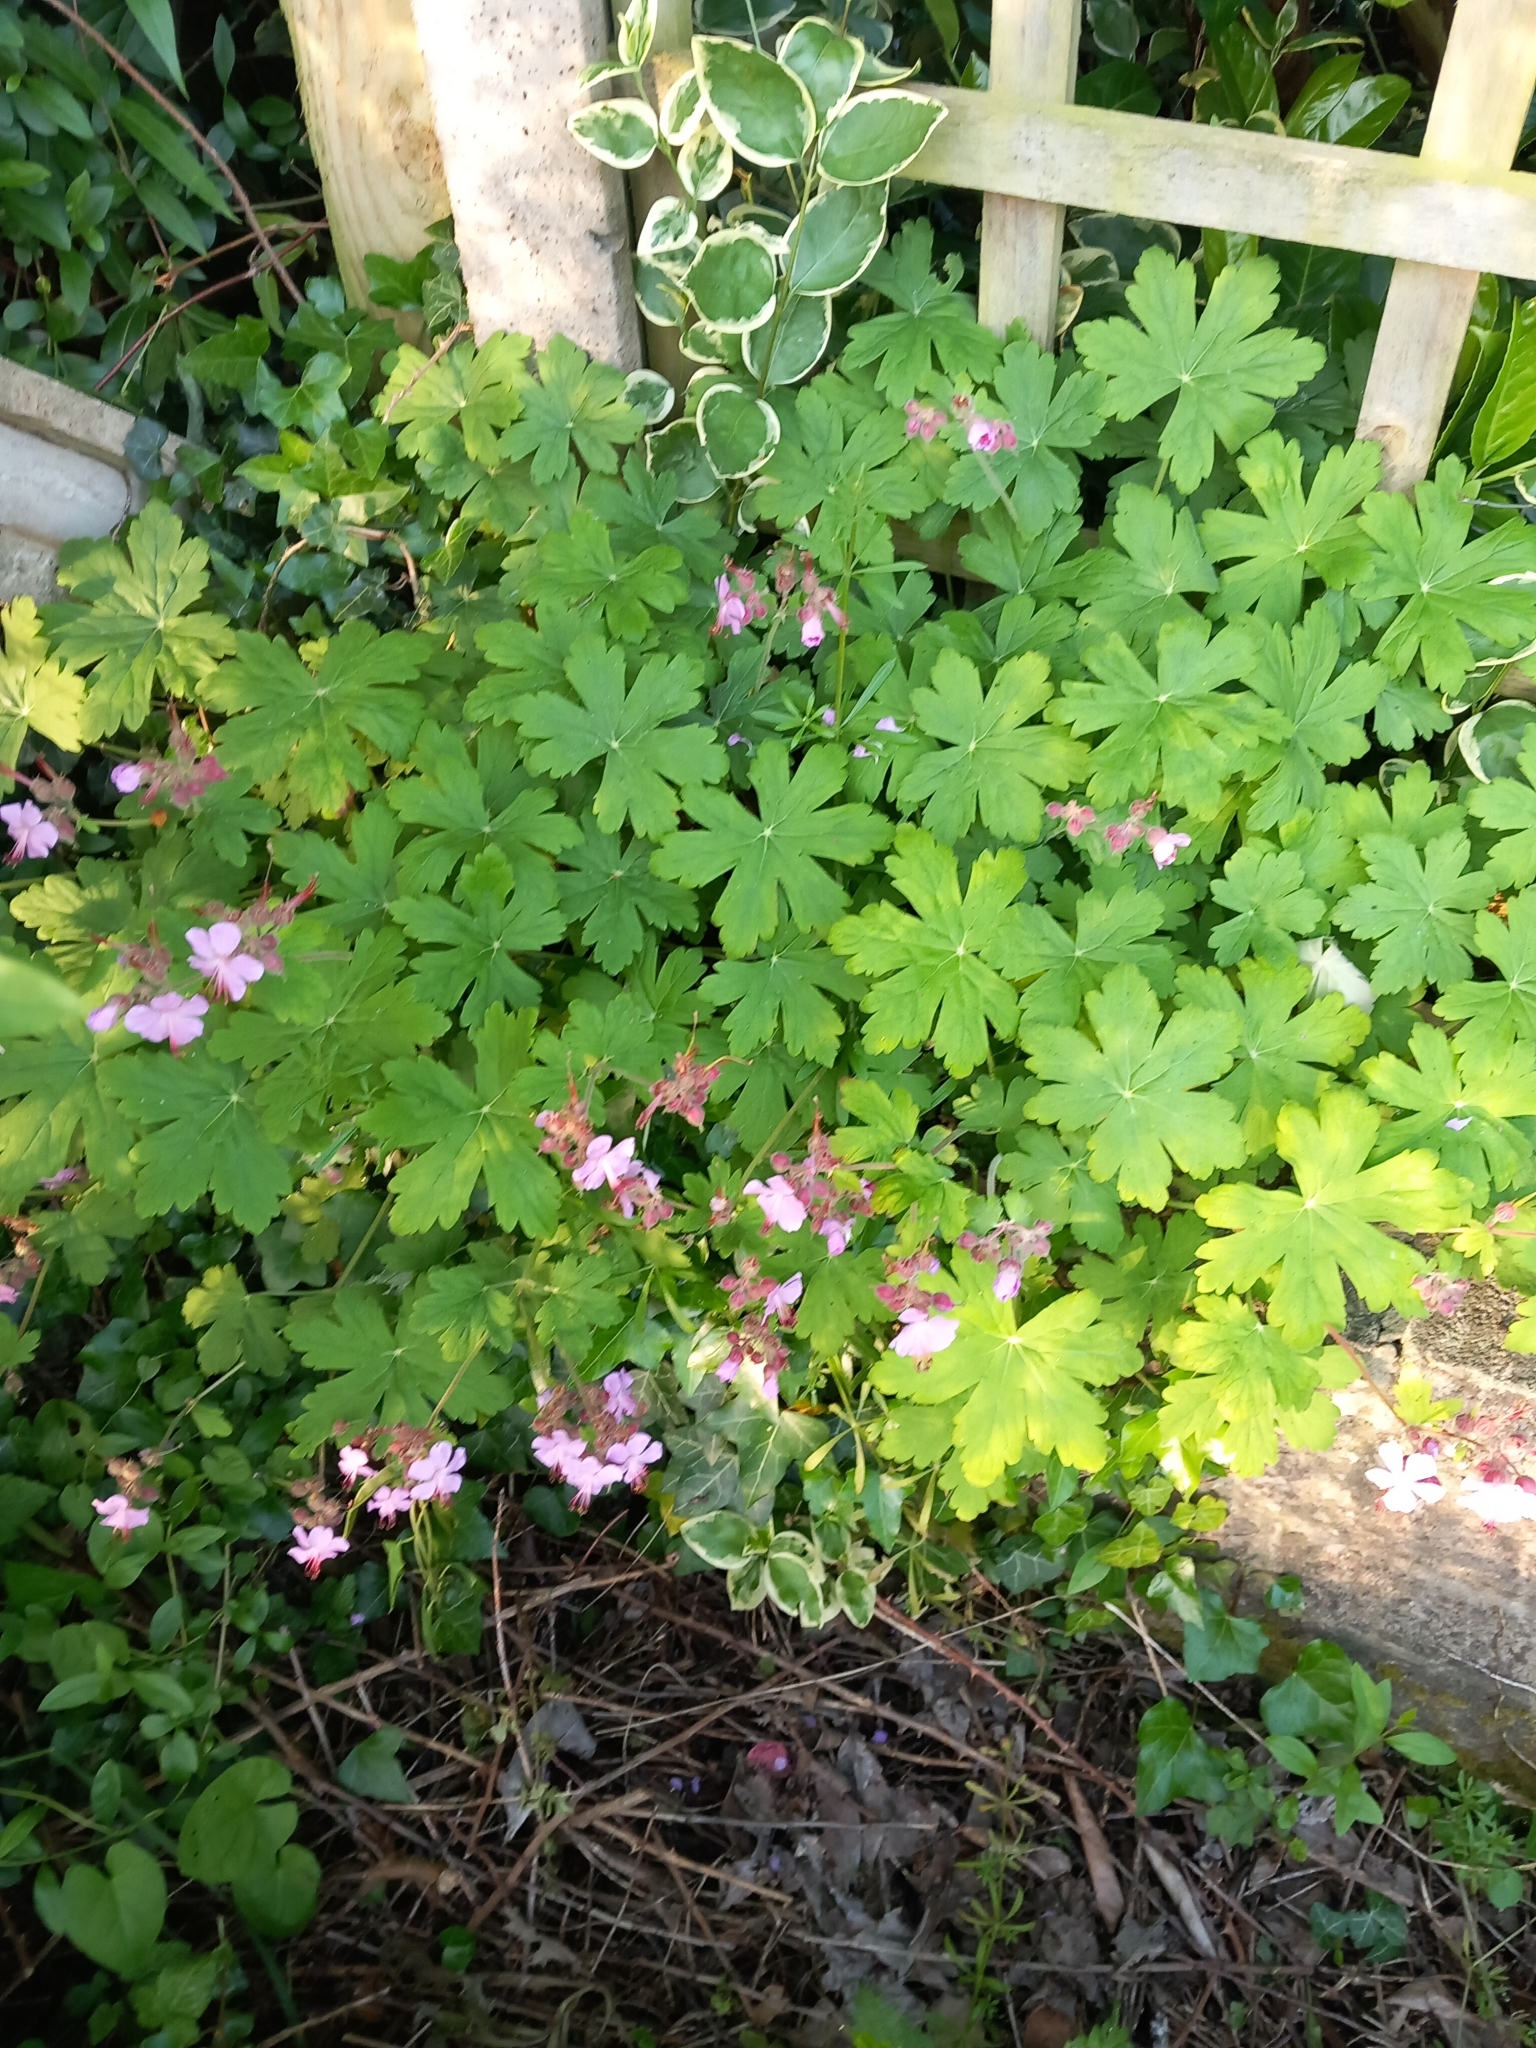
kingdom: Plantae
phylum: Tracheophyta
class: Magnoliopsida
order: Geraniales
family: Geraniaceae
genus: Geranium
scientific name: Geranium macrorrhizum
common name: Rock crane's-bill
